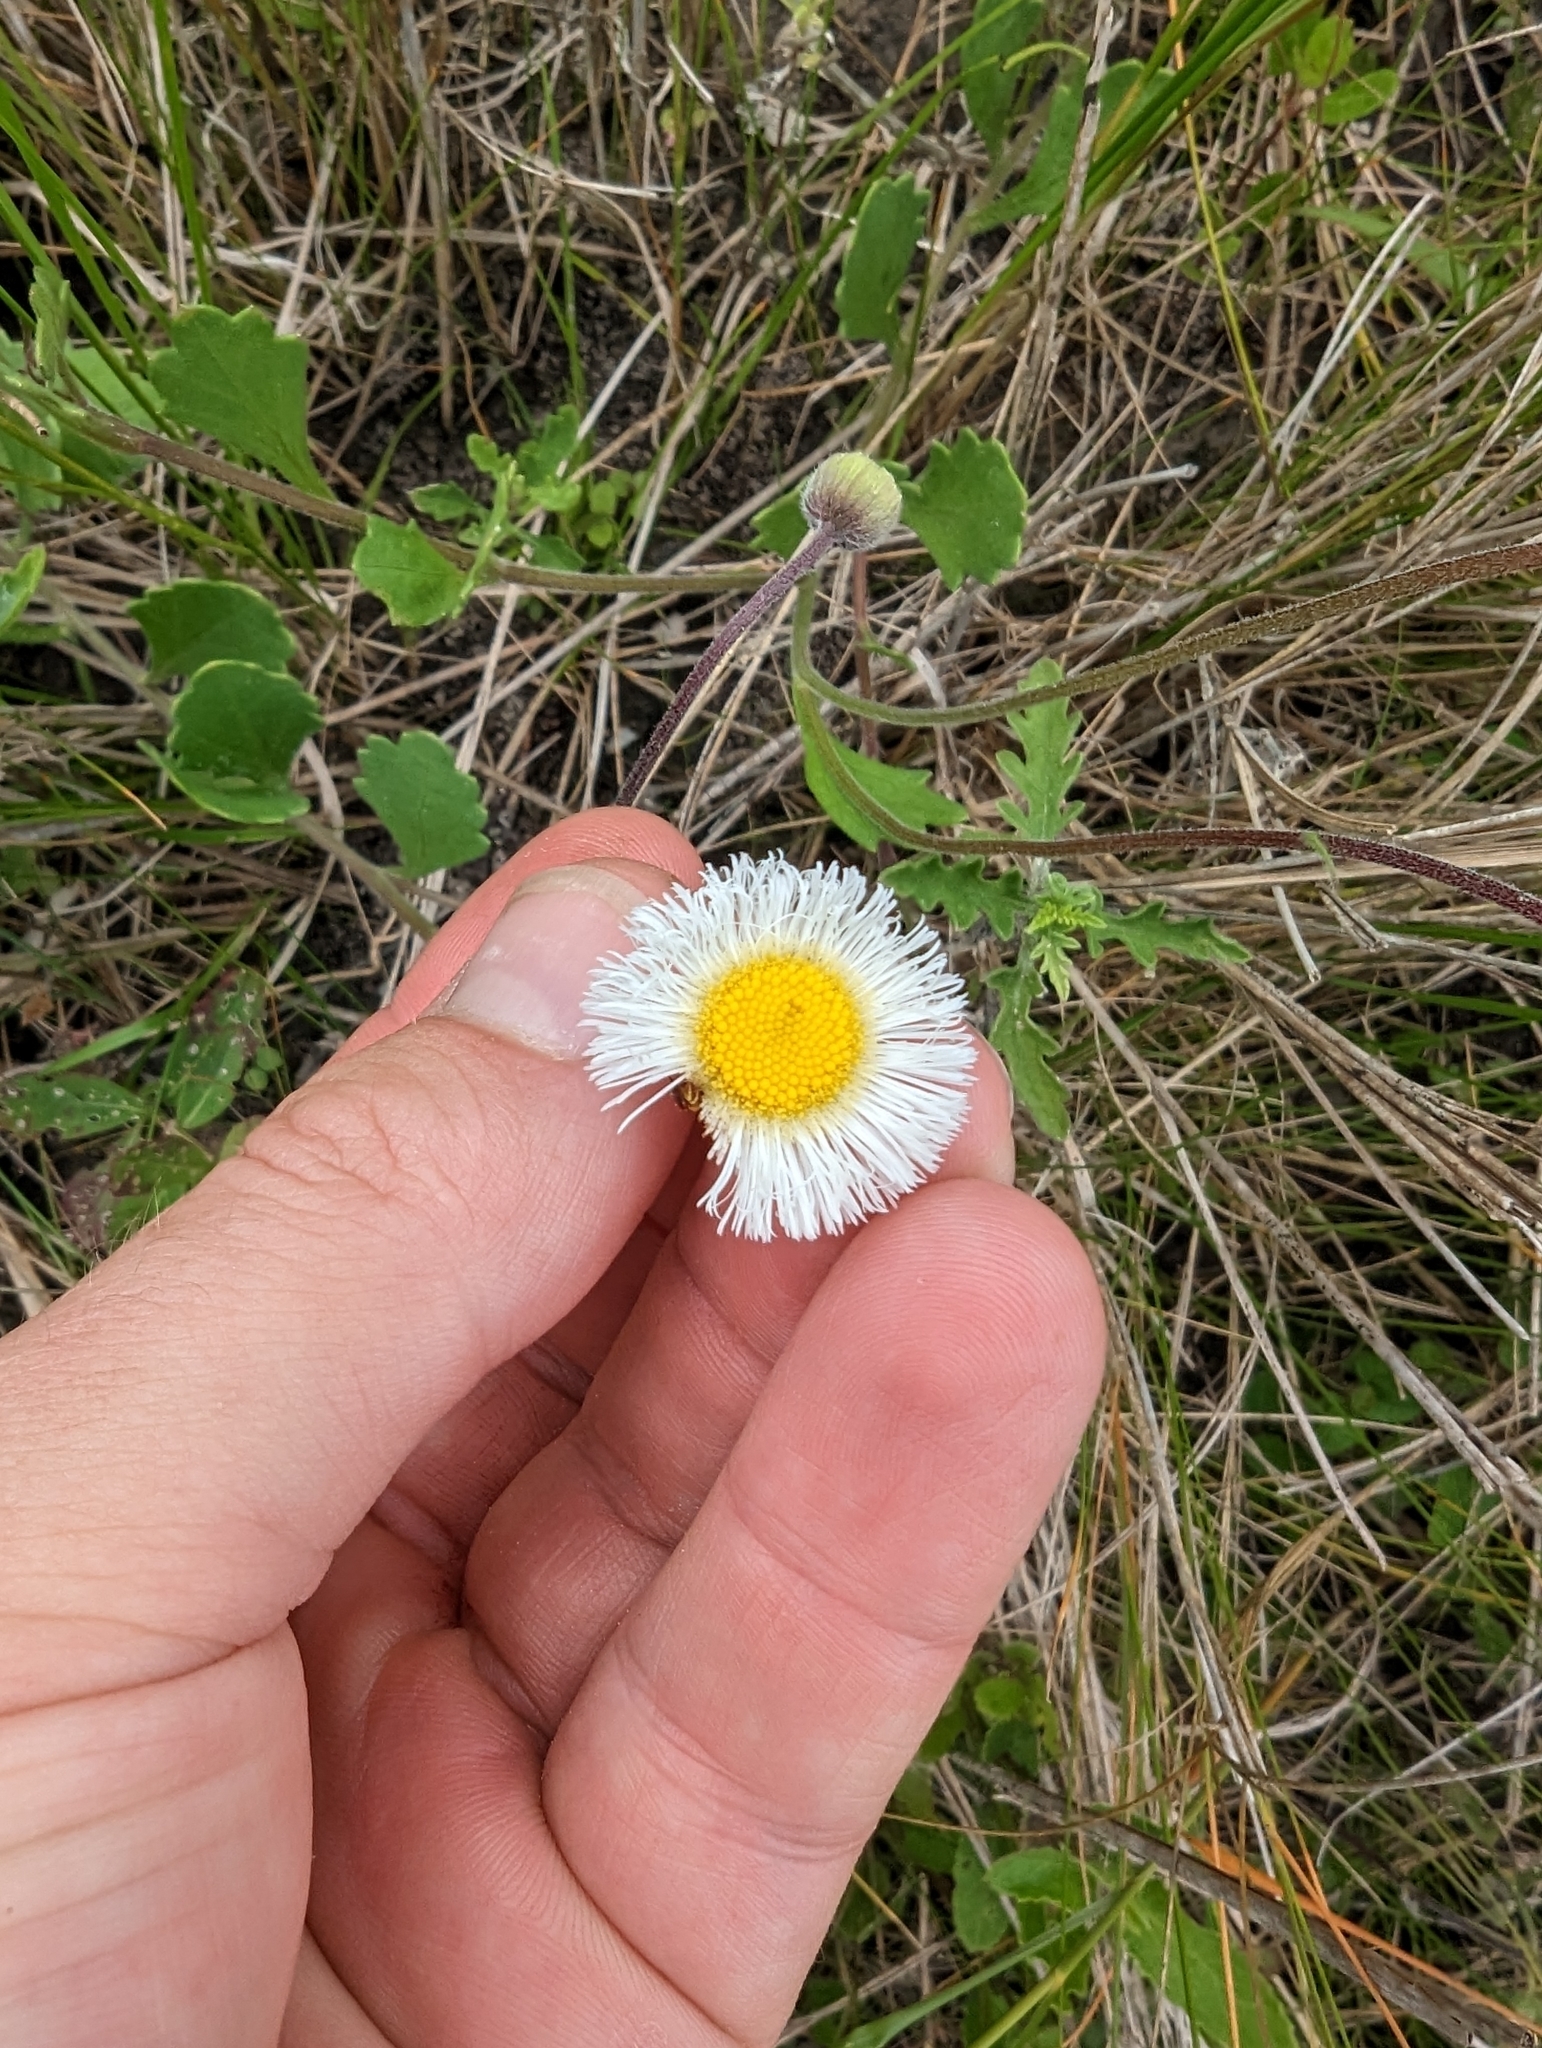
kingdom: Plantae
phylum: Tracheophyta
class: Magnoliopsida
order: Asterales
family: Asteraceae
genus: Erigeron
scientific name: Erigeron procumbens
